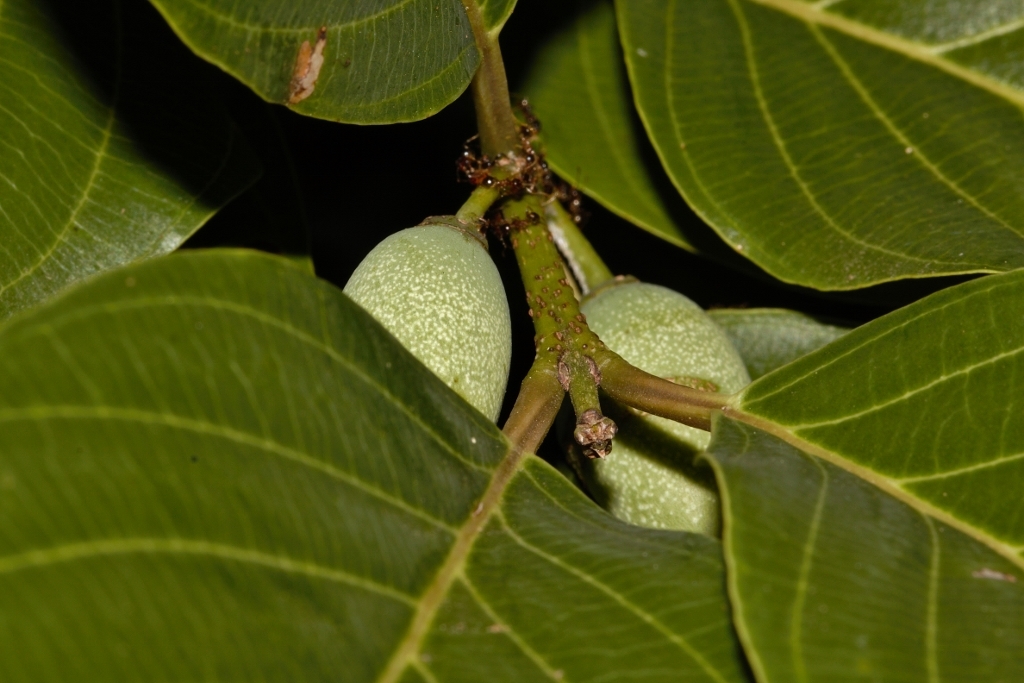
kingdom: Plantae
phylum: Tracheophyta
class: Magnoliopsida
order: Rosales
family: Rhamnaceae
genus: Phyllogeiton
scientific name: Phyllogeiton discolor
